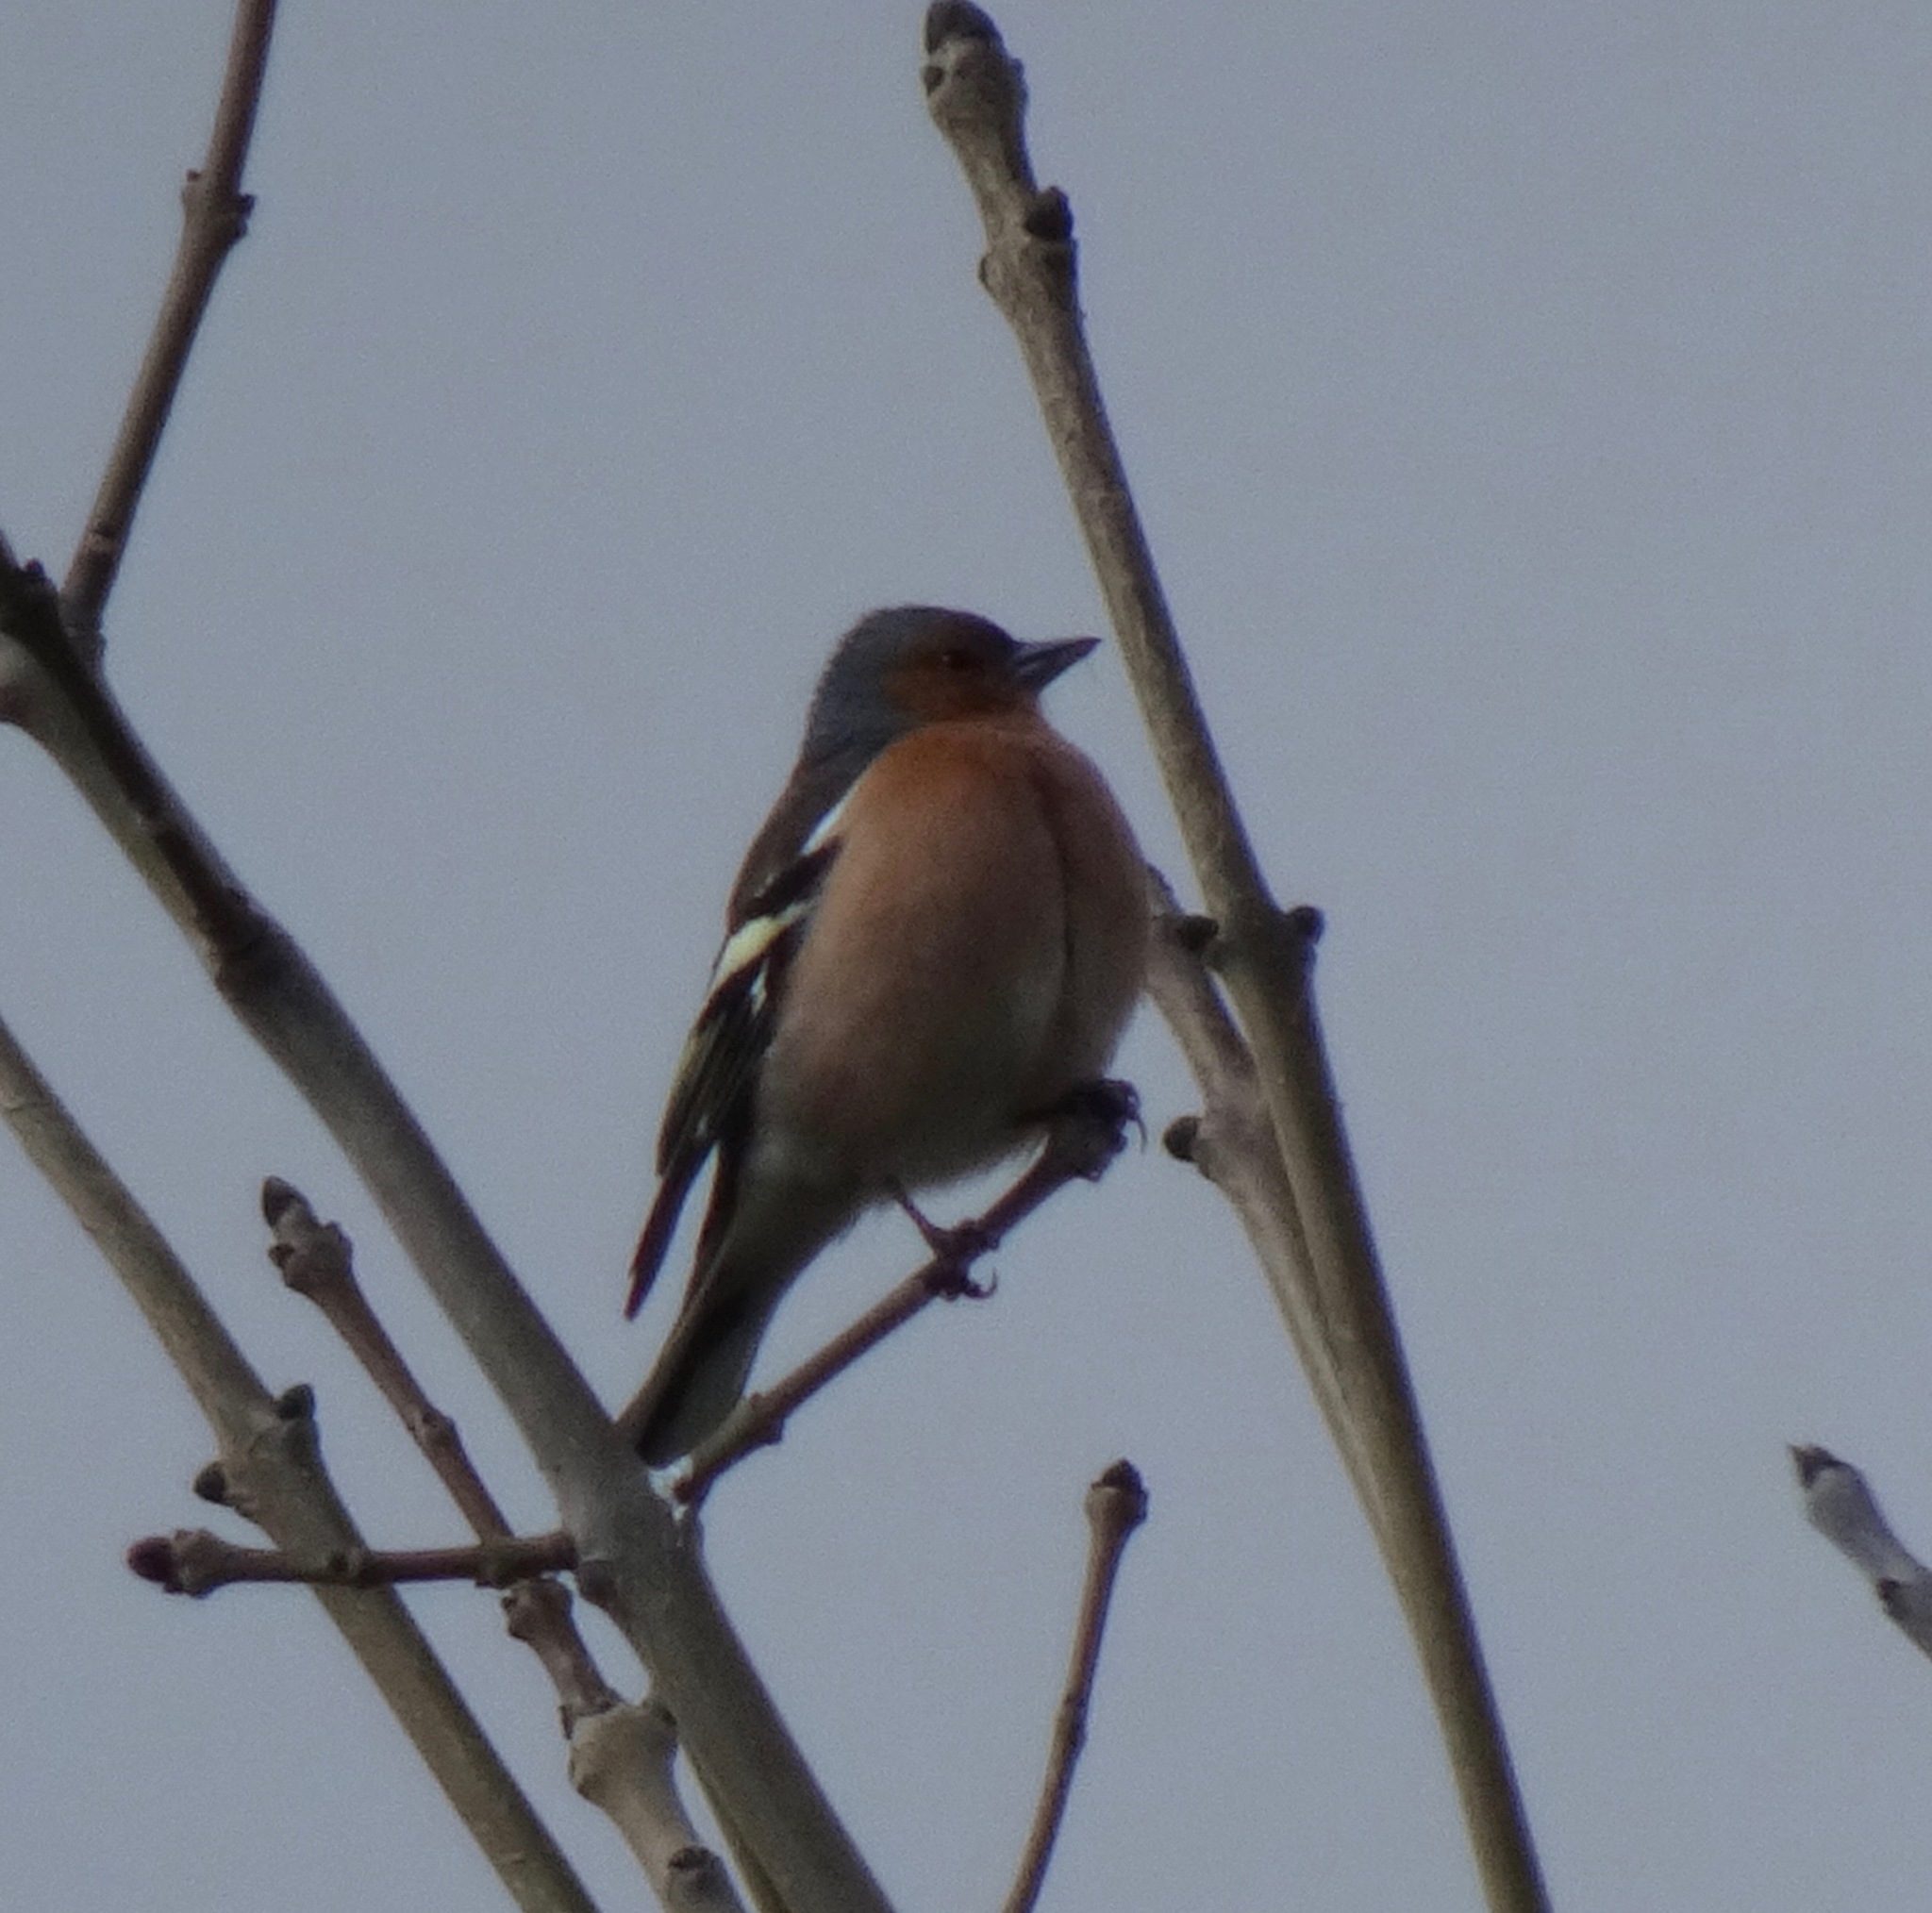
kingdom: Animalia
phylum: Chordata
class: Aves
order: Passeriformes
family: Fringillidae
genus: Fringilla
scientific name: Fringilla coelebs
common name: Common chaffinch
